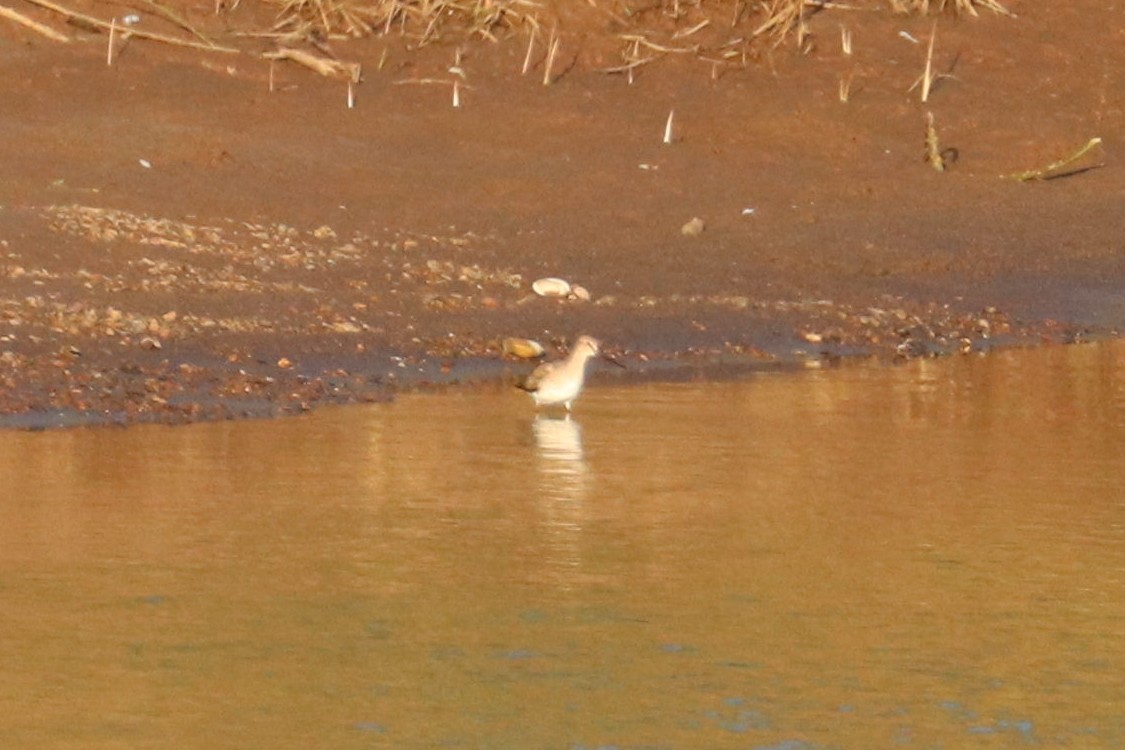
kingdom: Animalia
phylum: Chordata
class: Aves
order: Charadriiformes
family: Scolopacidae
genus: Xenus
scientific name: Xenus cinereus
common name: Terek sandpiper
